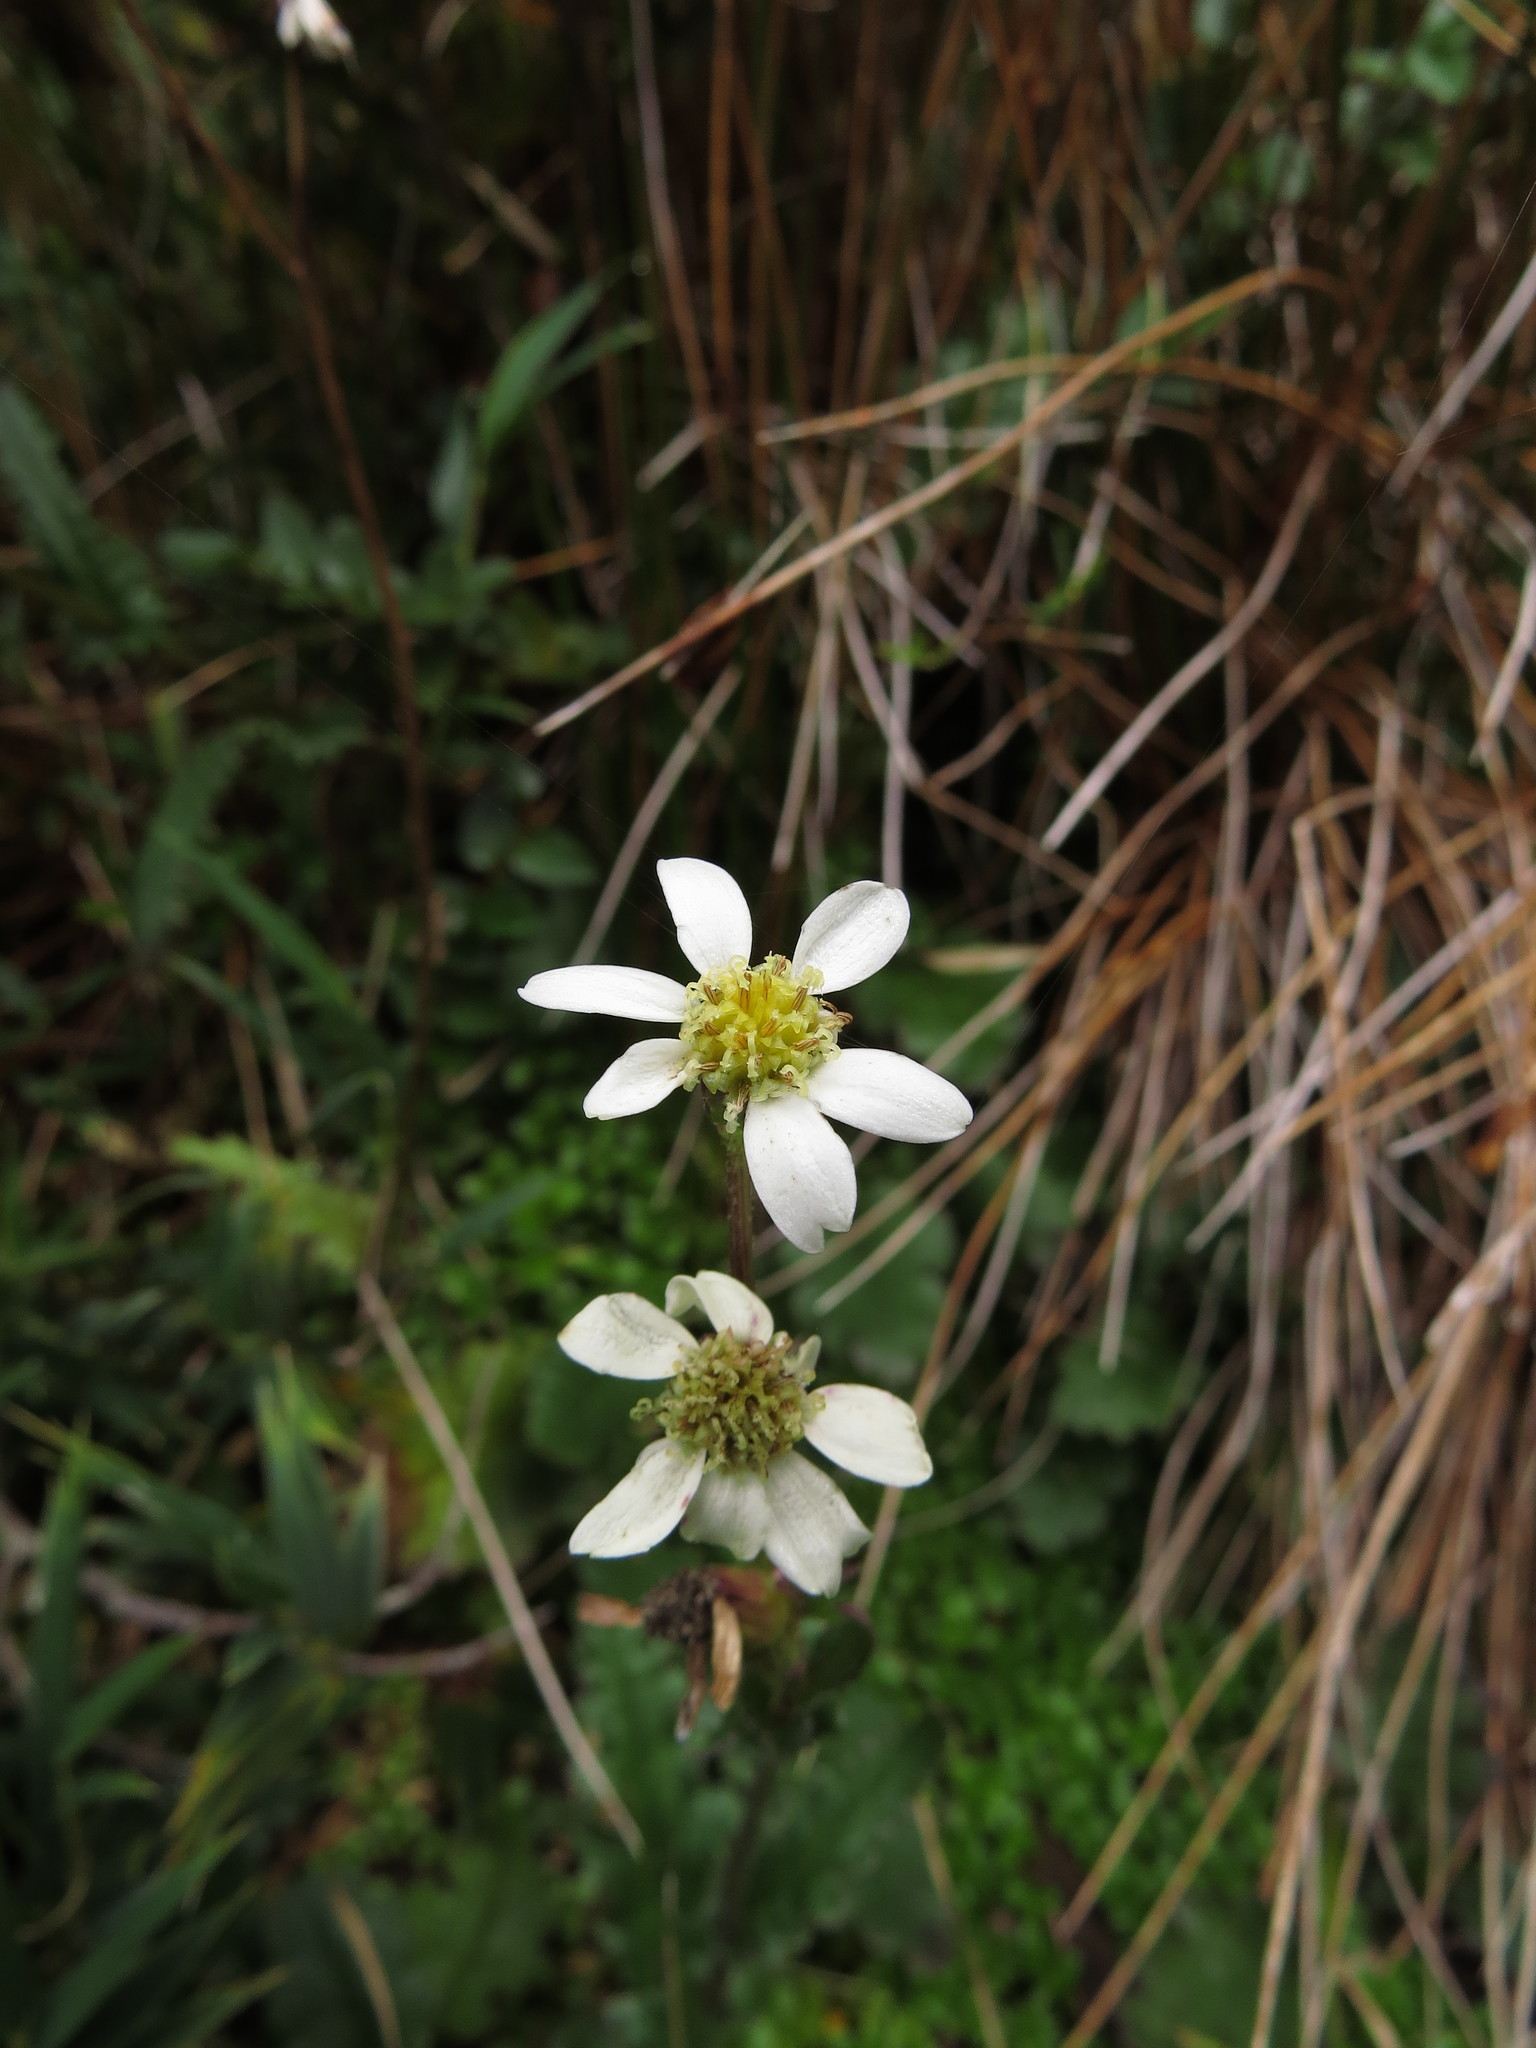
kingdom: Plantae
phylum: Tracheophyta
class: Magnoliopsida
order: Asterales
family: Asteraceae
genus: Iocenes
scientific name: Iocenes virens
